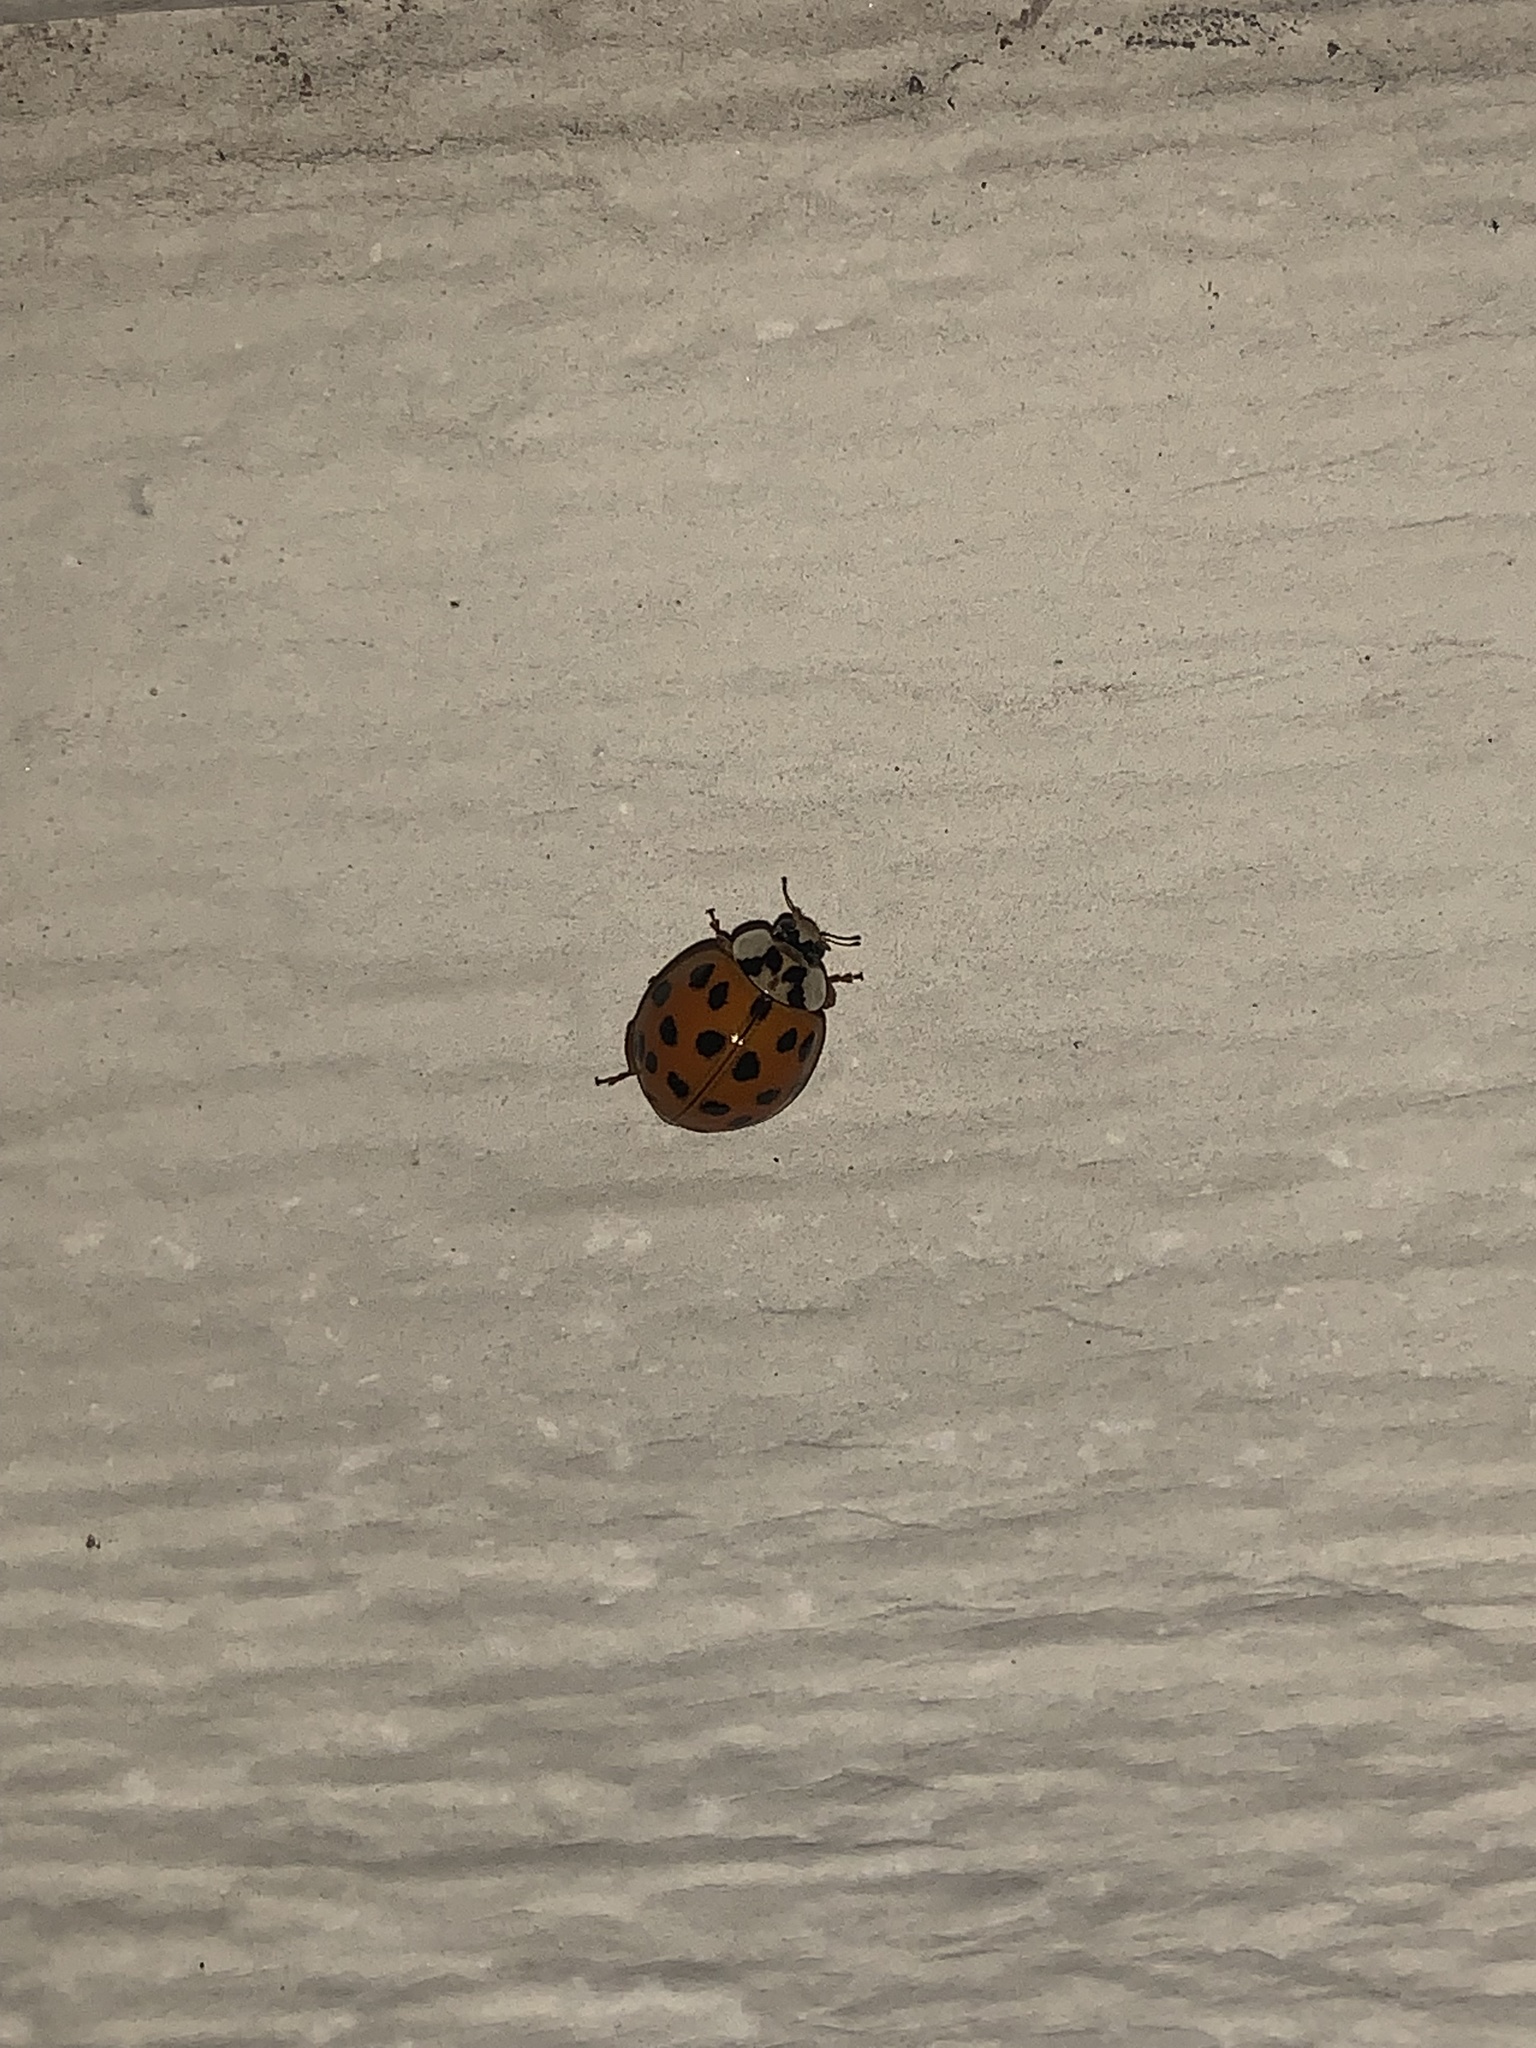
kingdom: Animalia
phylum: Arthropoda
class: Insecta
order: Coleoptera
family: Coccinellidae
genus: Harmonia
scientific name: Harmonia axyridis
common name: Harlequin ladybird
